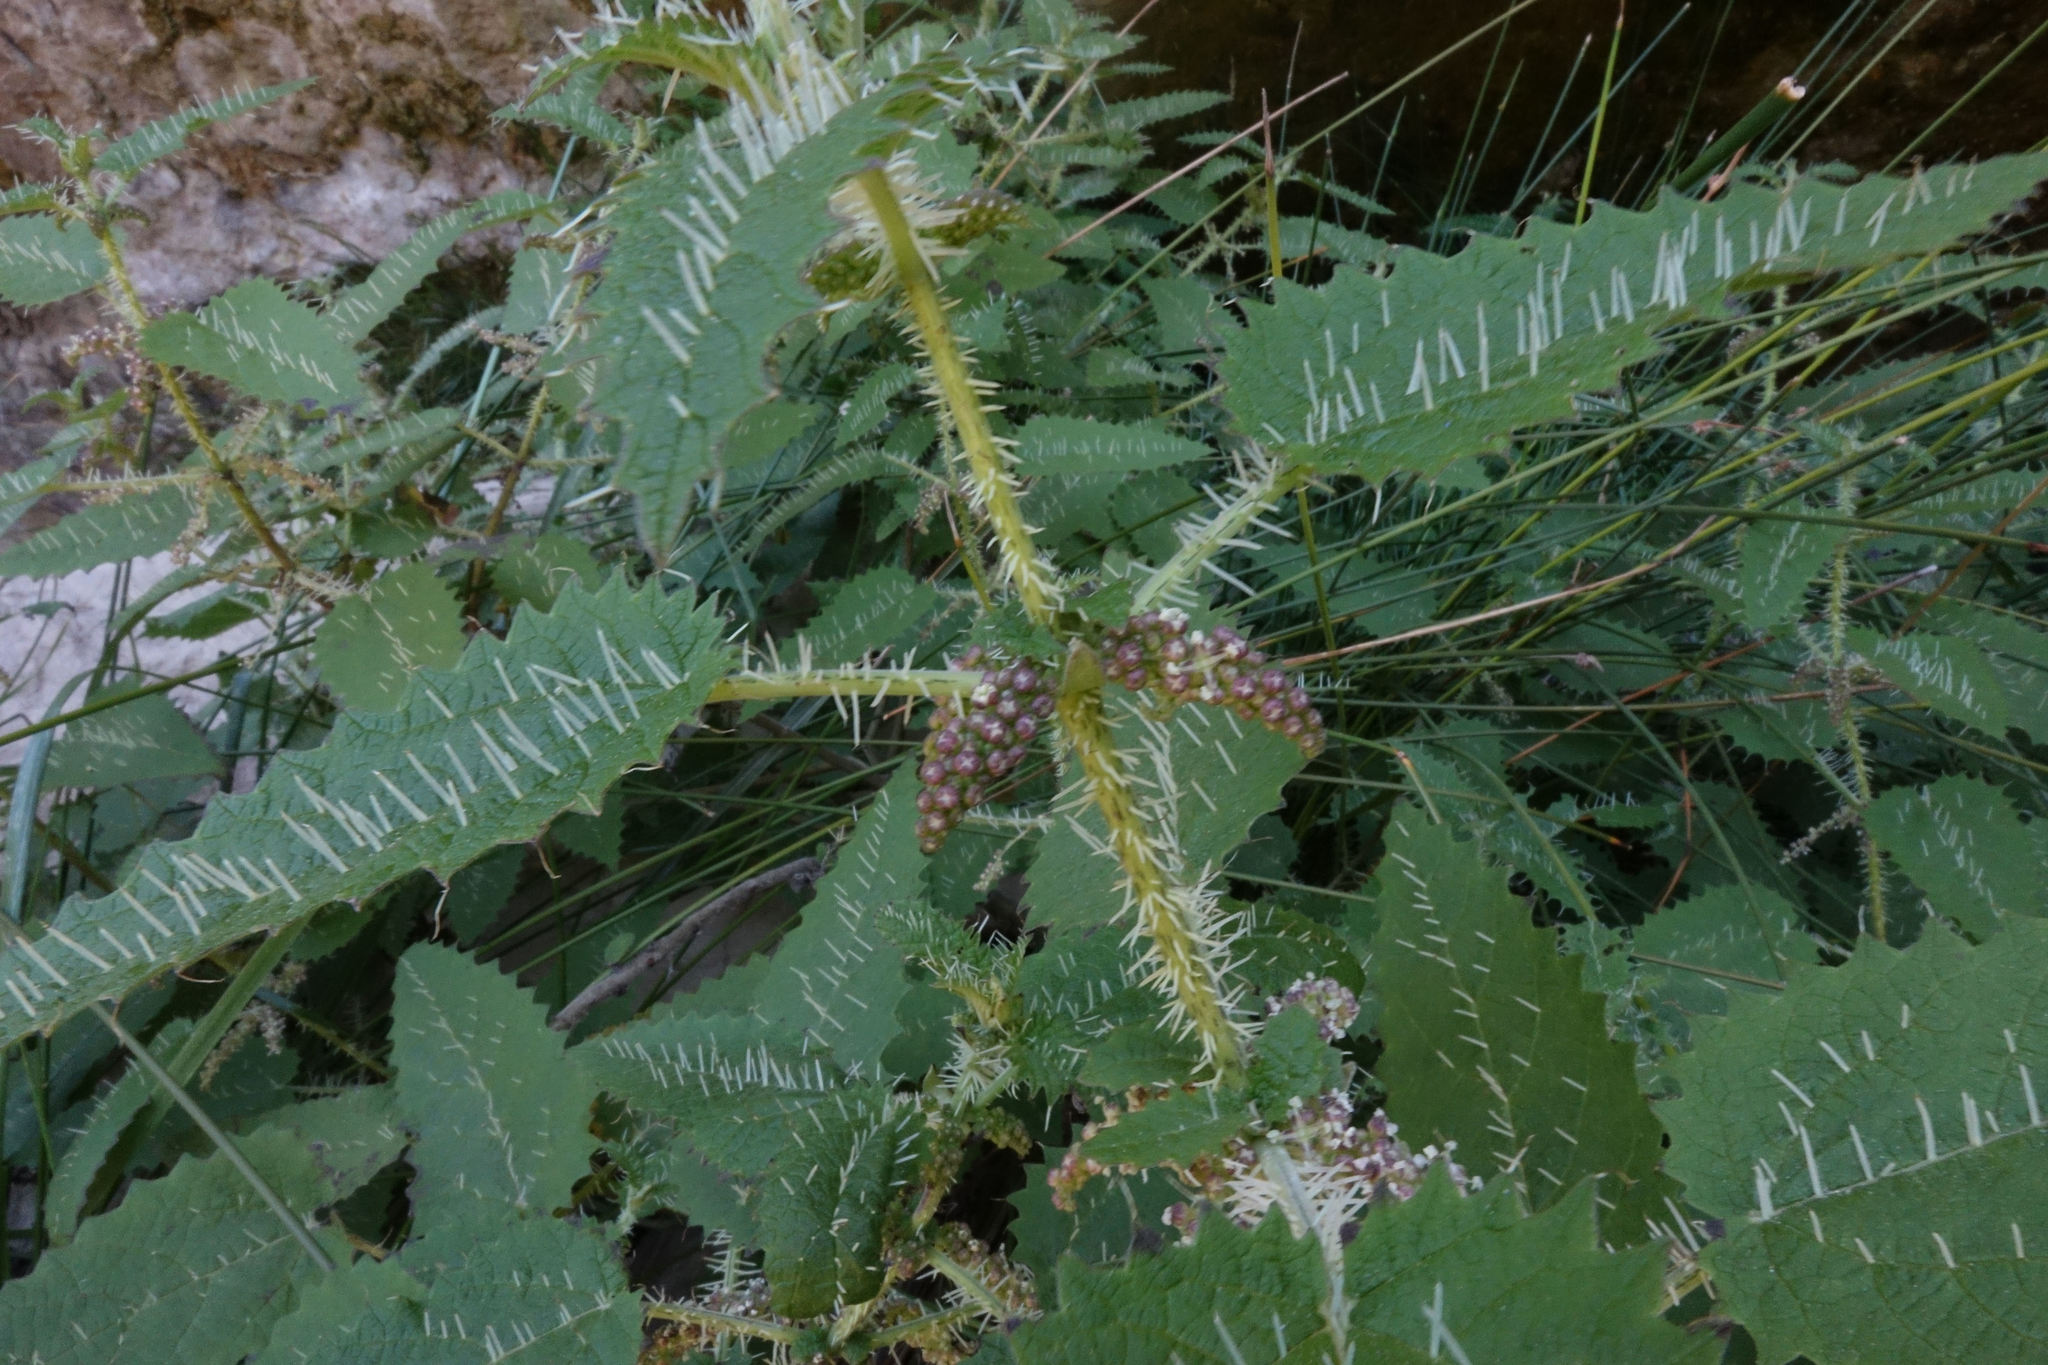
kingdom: Plantae
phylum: Tracheophyta
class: Magnoliopsida
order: Rosales
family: Urticaceae
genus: Urtica
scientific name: Urtica ferox
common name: Tree nettle
